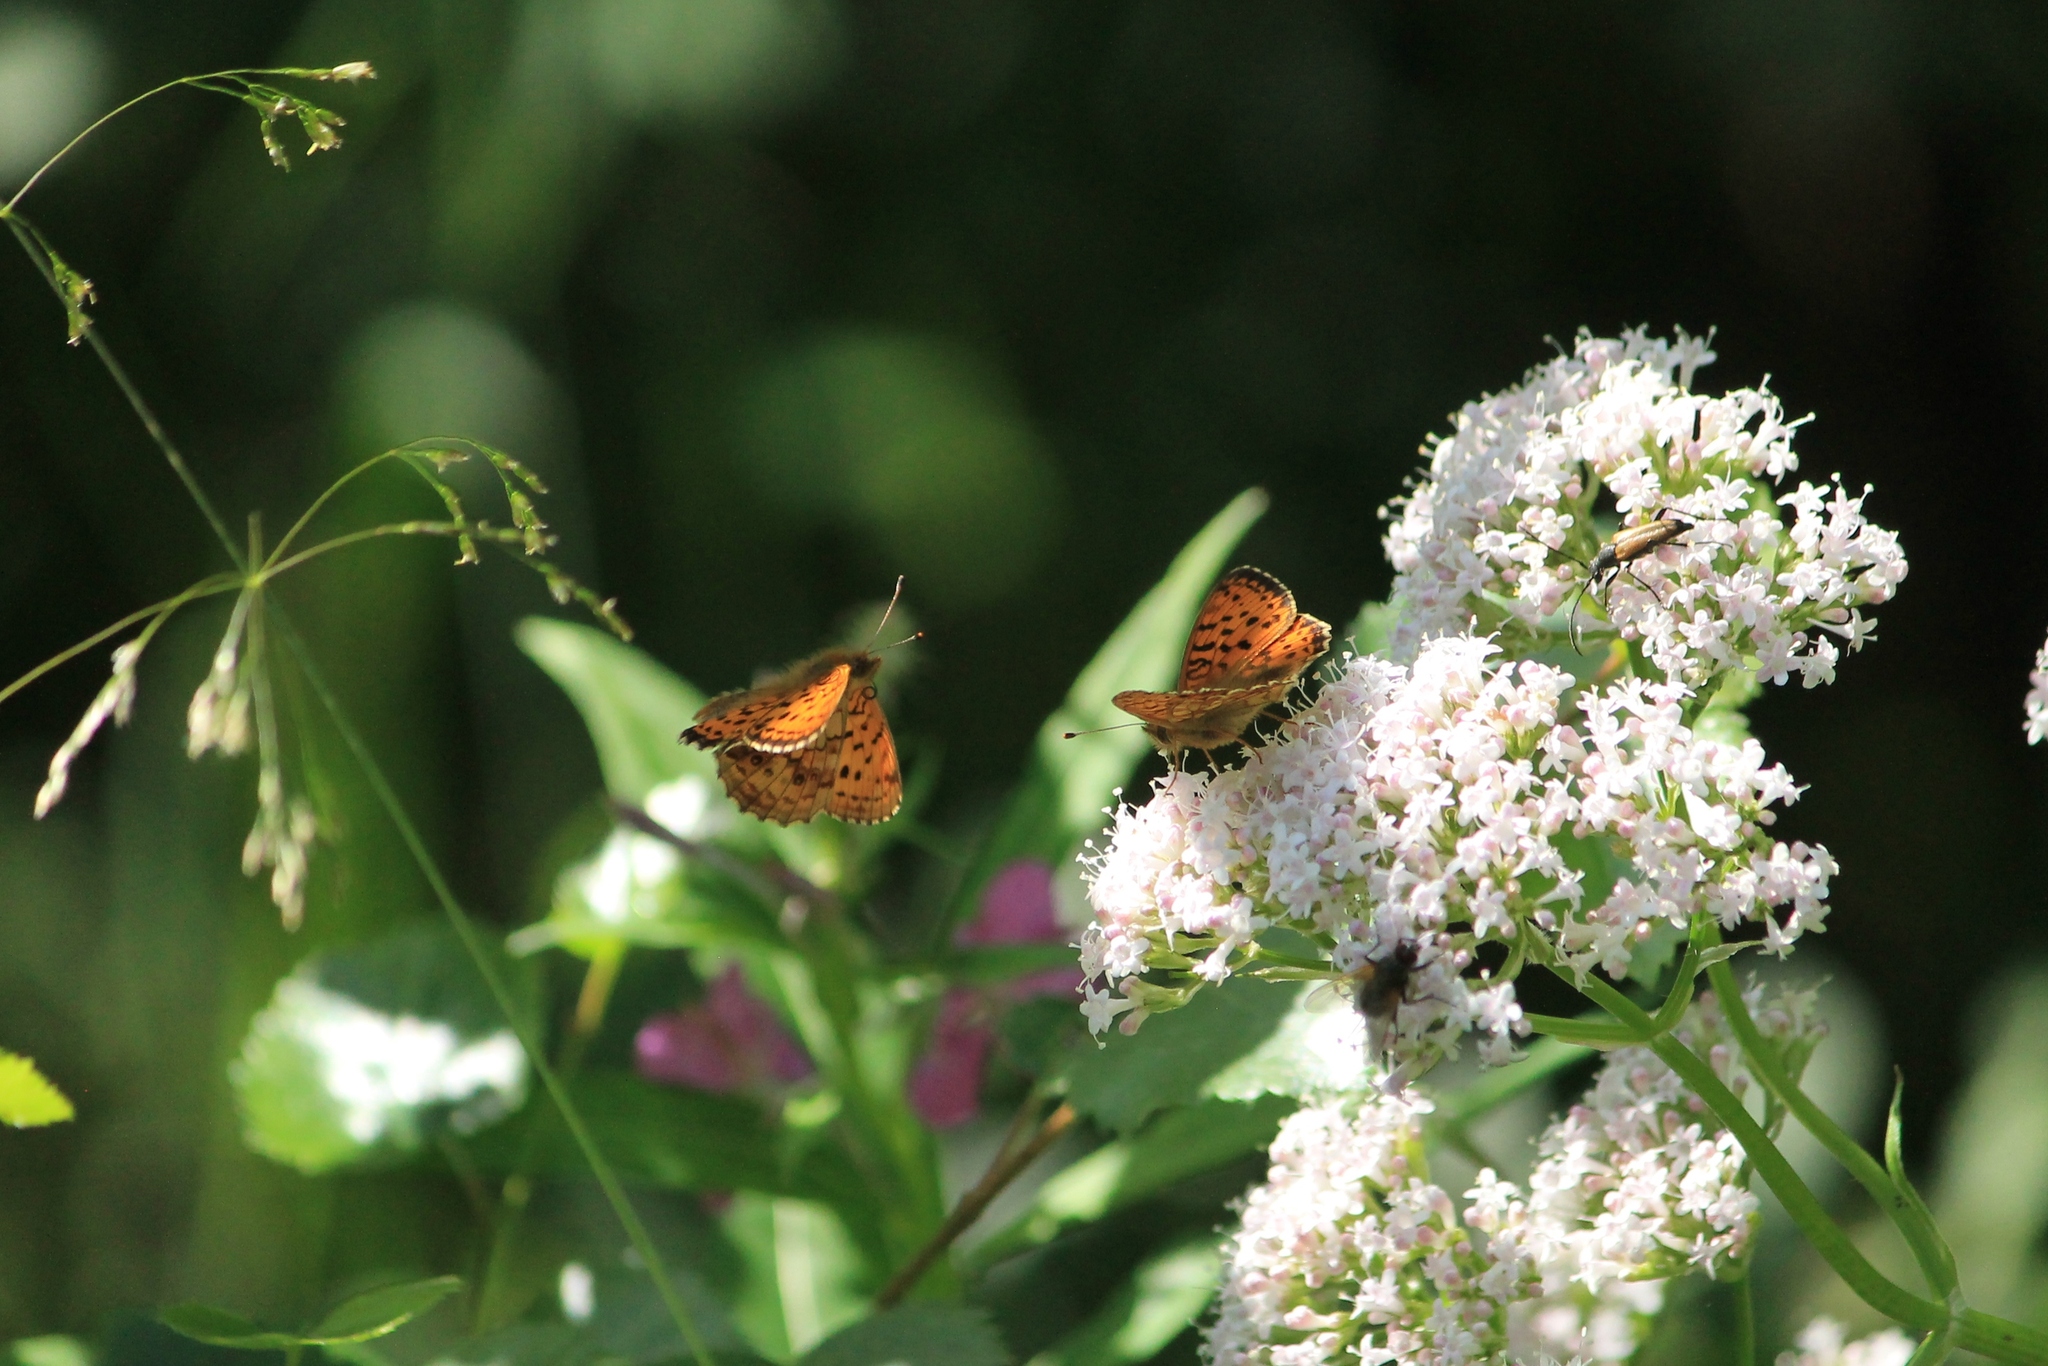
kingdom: Animalia
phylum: Arthropoda
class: Insecta
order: Lepidoptera
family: Nymphalidae
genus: Brenthis
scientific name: Brenthis ino
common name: Lesser marbled fritillary
